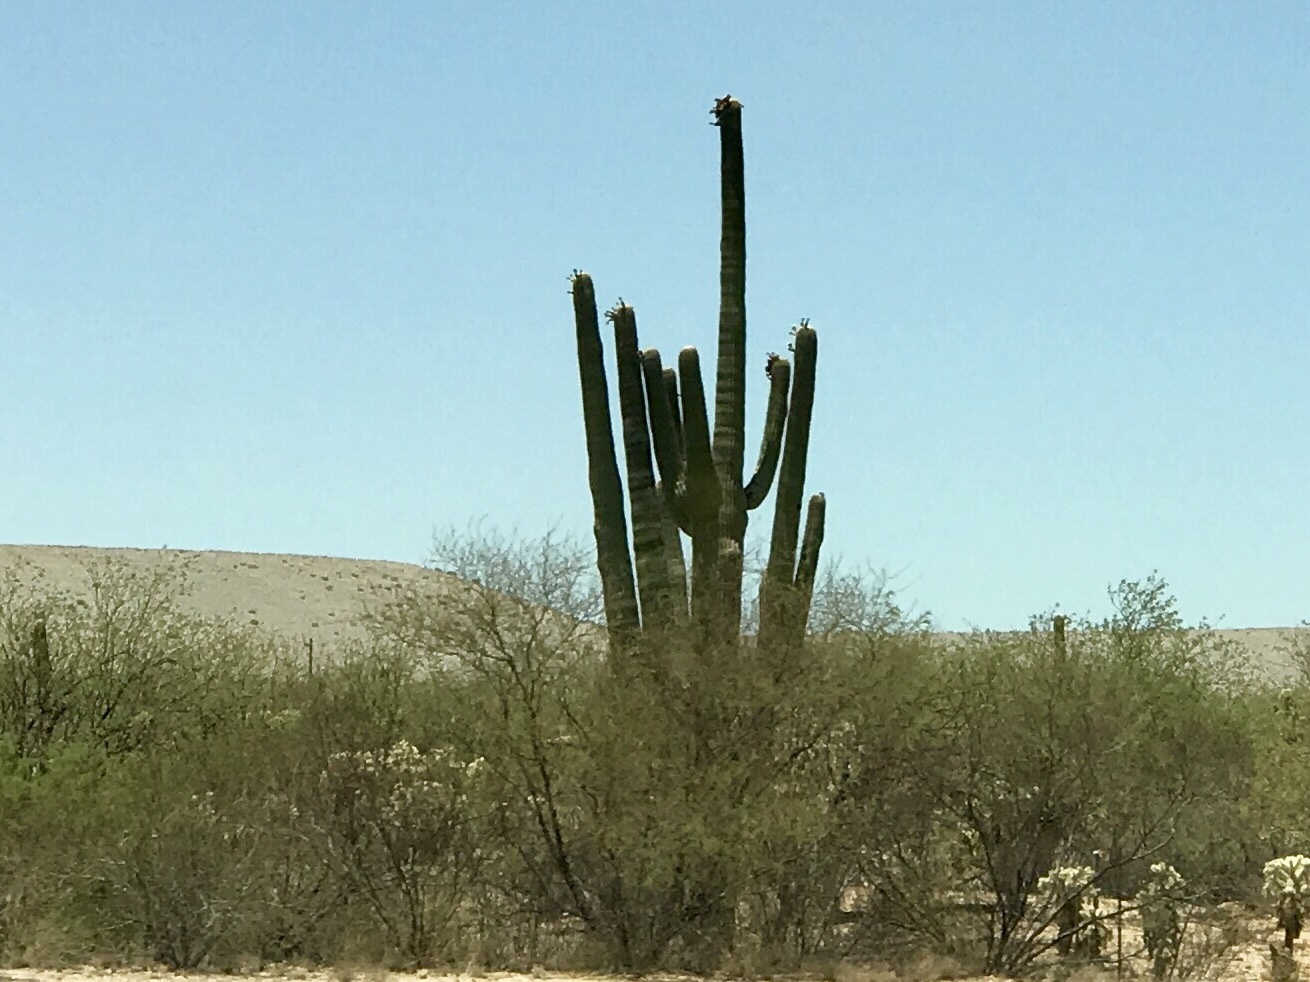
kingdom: Plantae
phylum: Tracheophyta
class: Magnoliopsida
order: Caryophyllales
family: Cactaceae
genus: Carnegiea
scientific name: Carnegiea gigantea
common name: Saguaro
